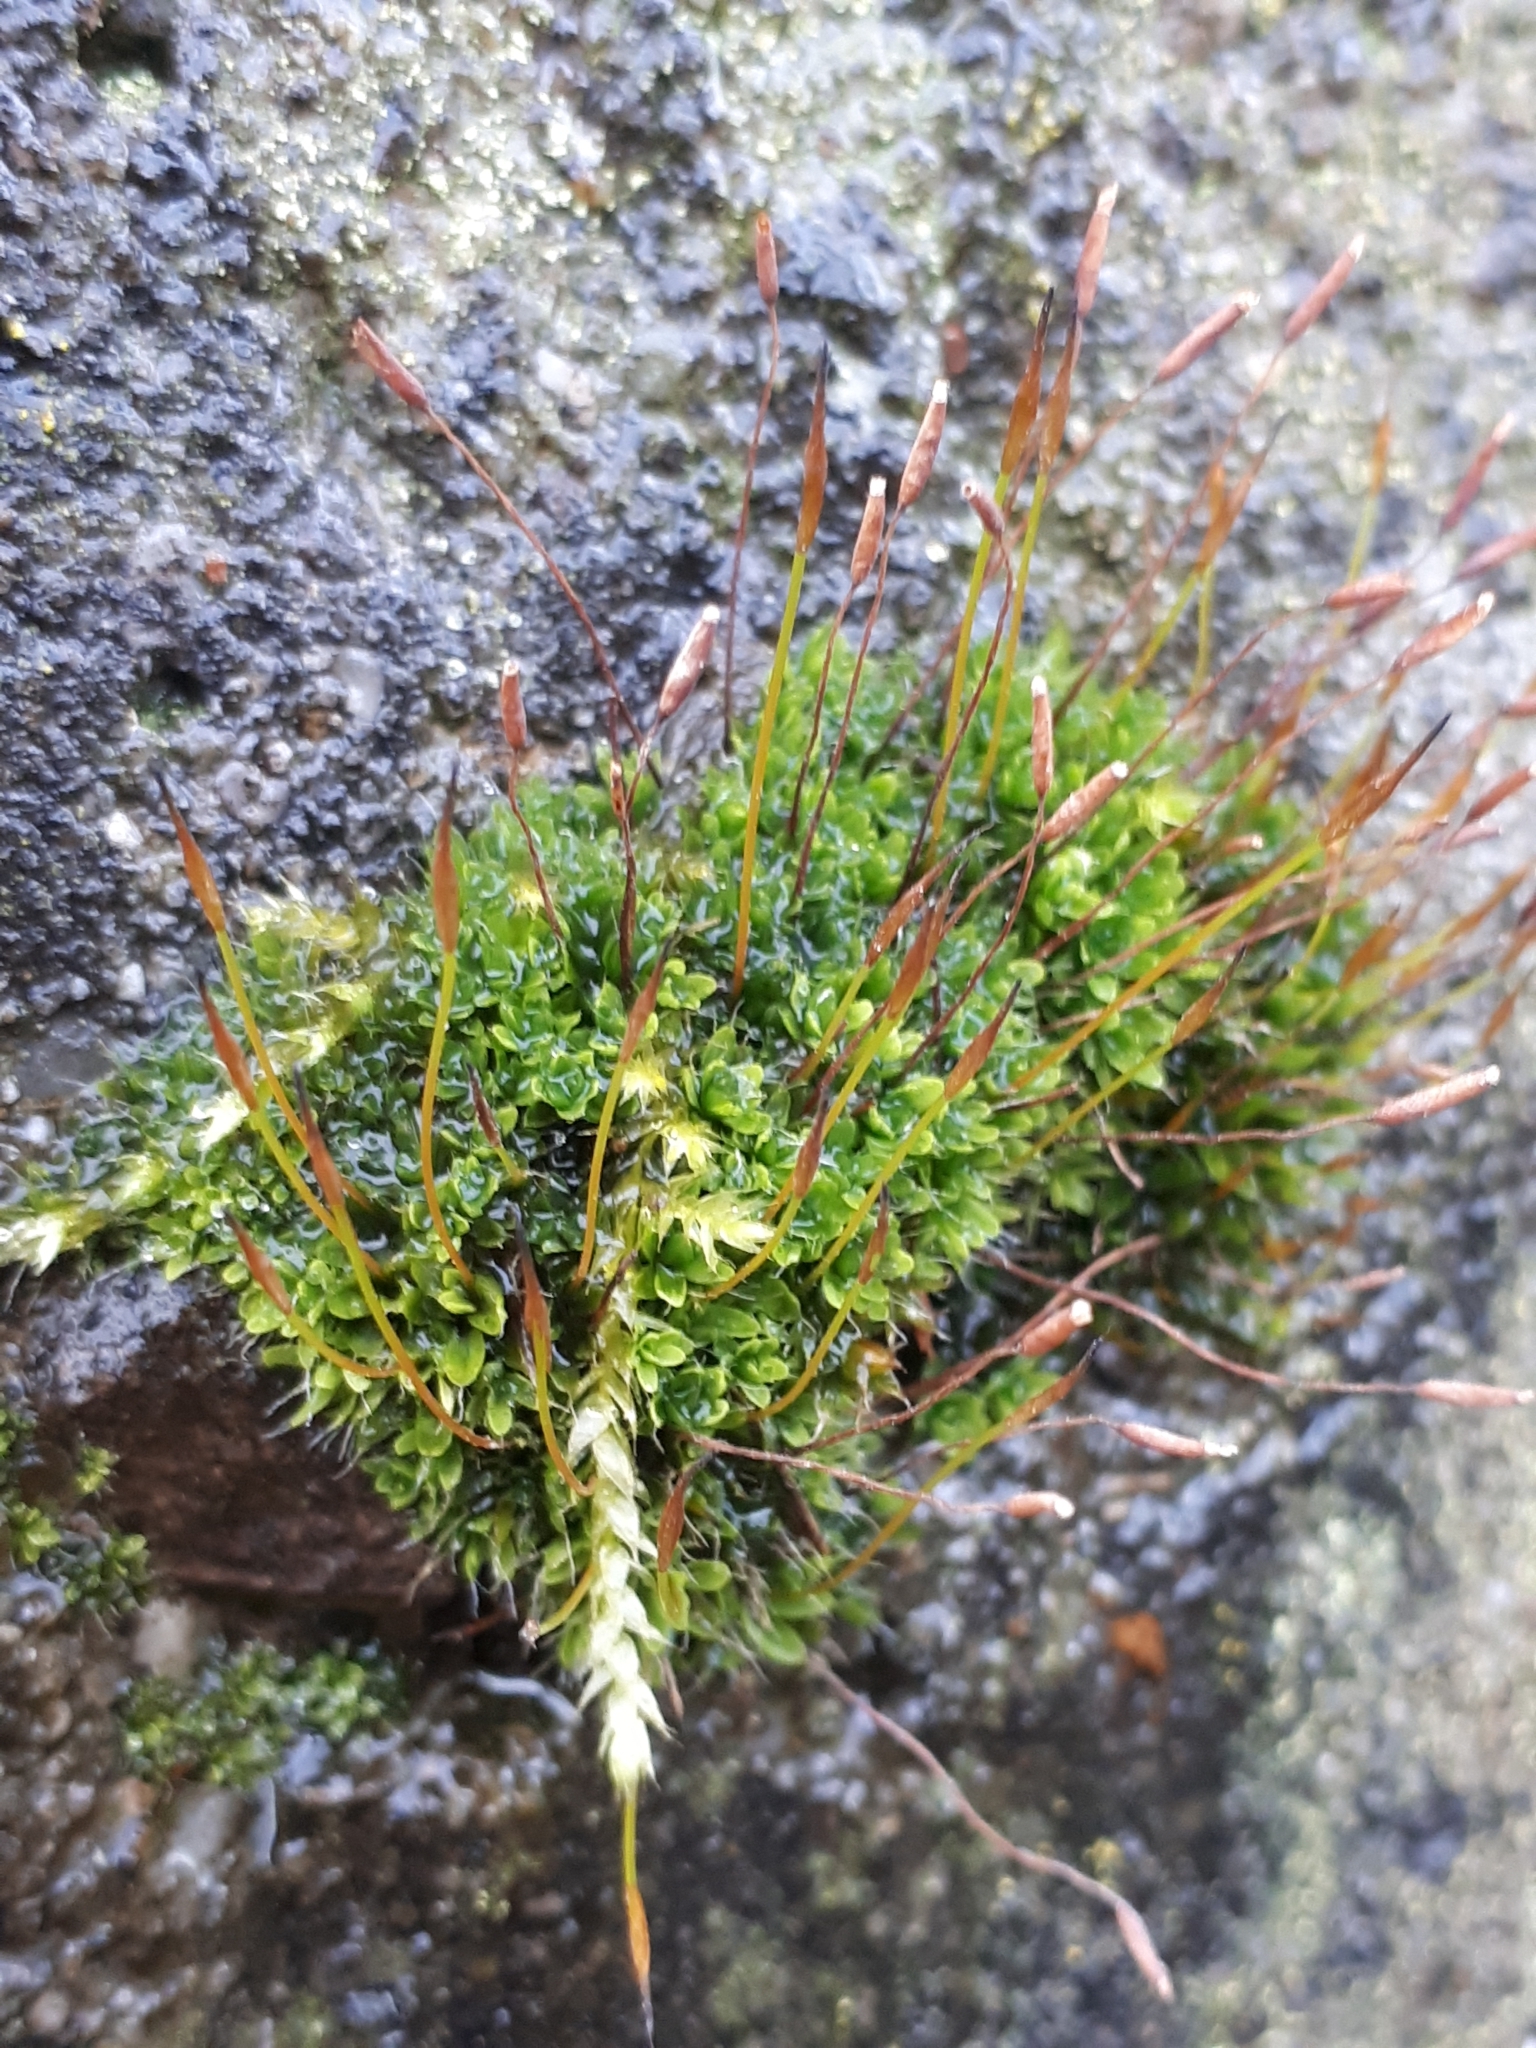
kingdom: Plantae
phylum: Bryophyta
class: Bryopsida
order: Pottiales
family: Pottiaceae
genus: Tortula
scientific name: Tortula muralis
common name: Wall screw-moss
